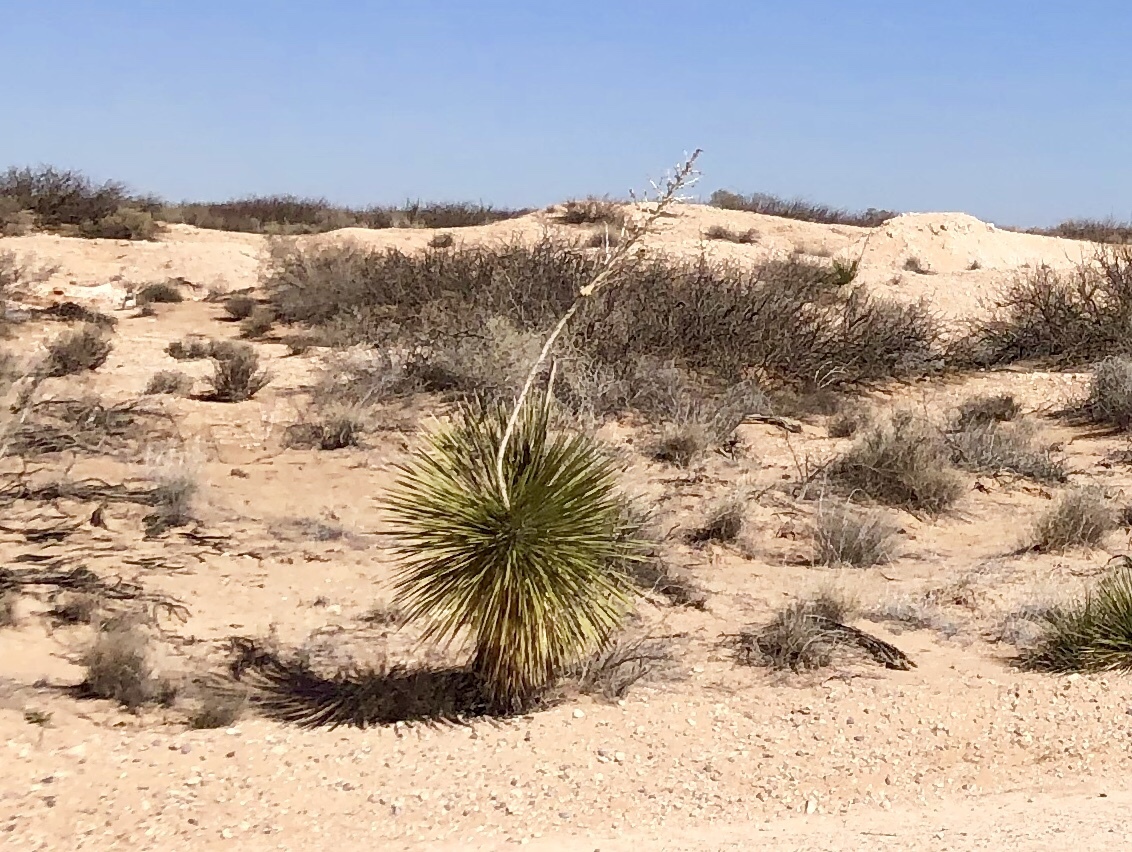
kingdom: Plantae
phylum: Tracheophyta
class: Liliopsida
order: Asparagales
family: Asparagaceae
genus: Yucca
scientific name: Yucca elata
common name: Palmella
